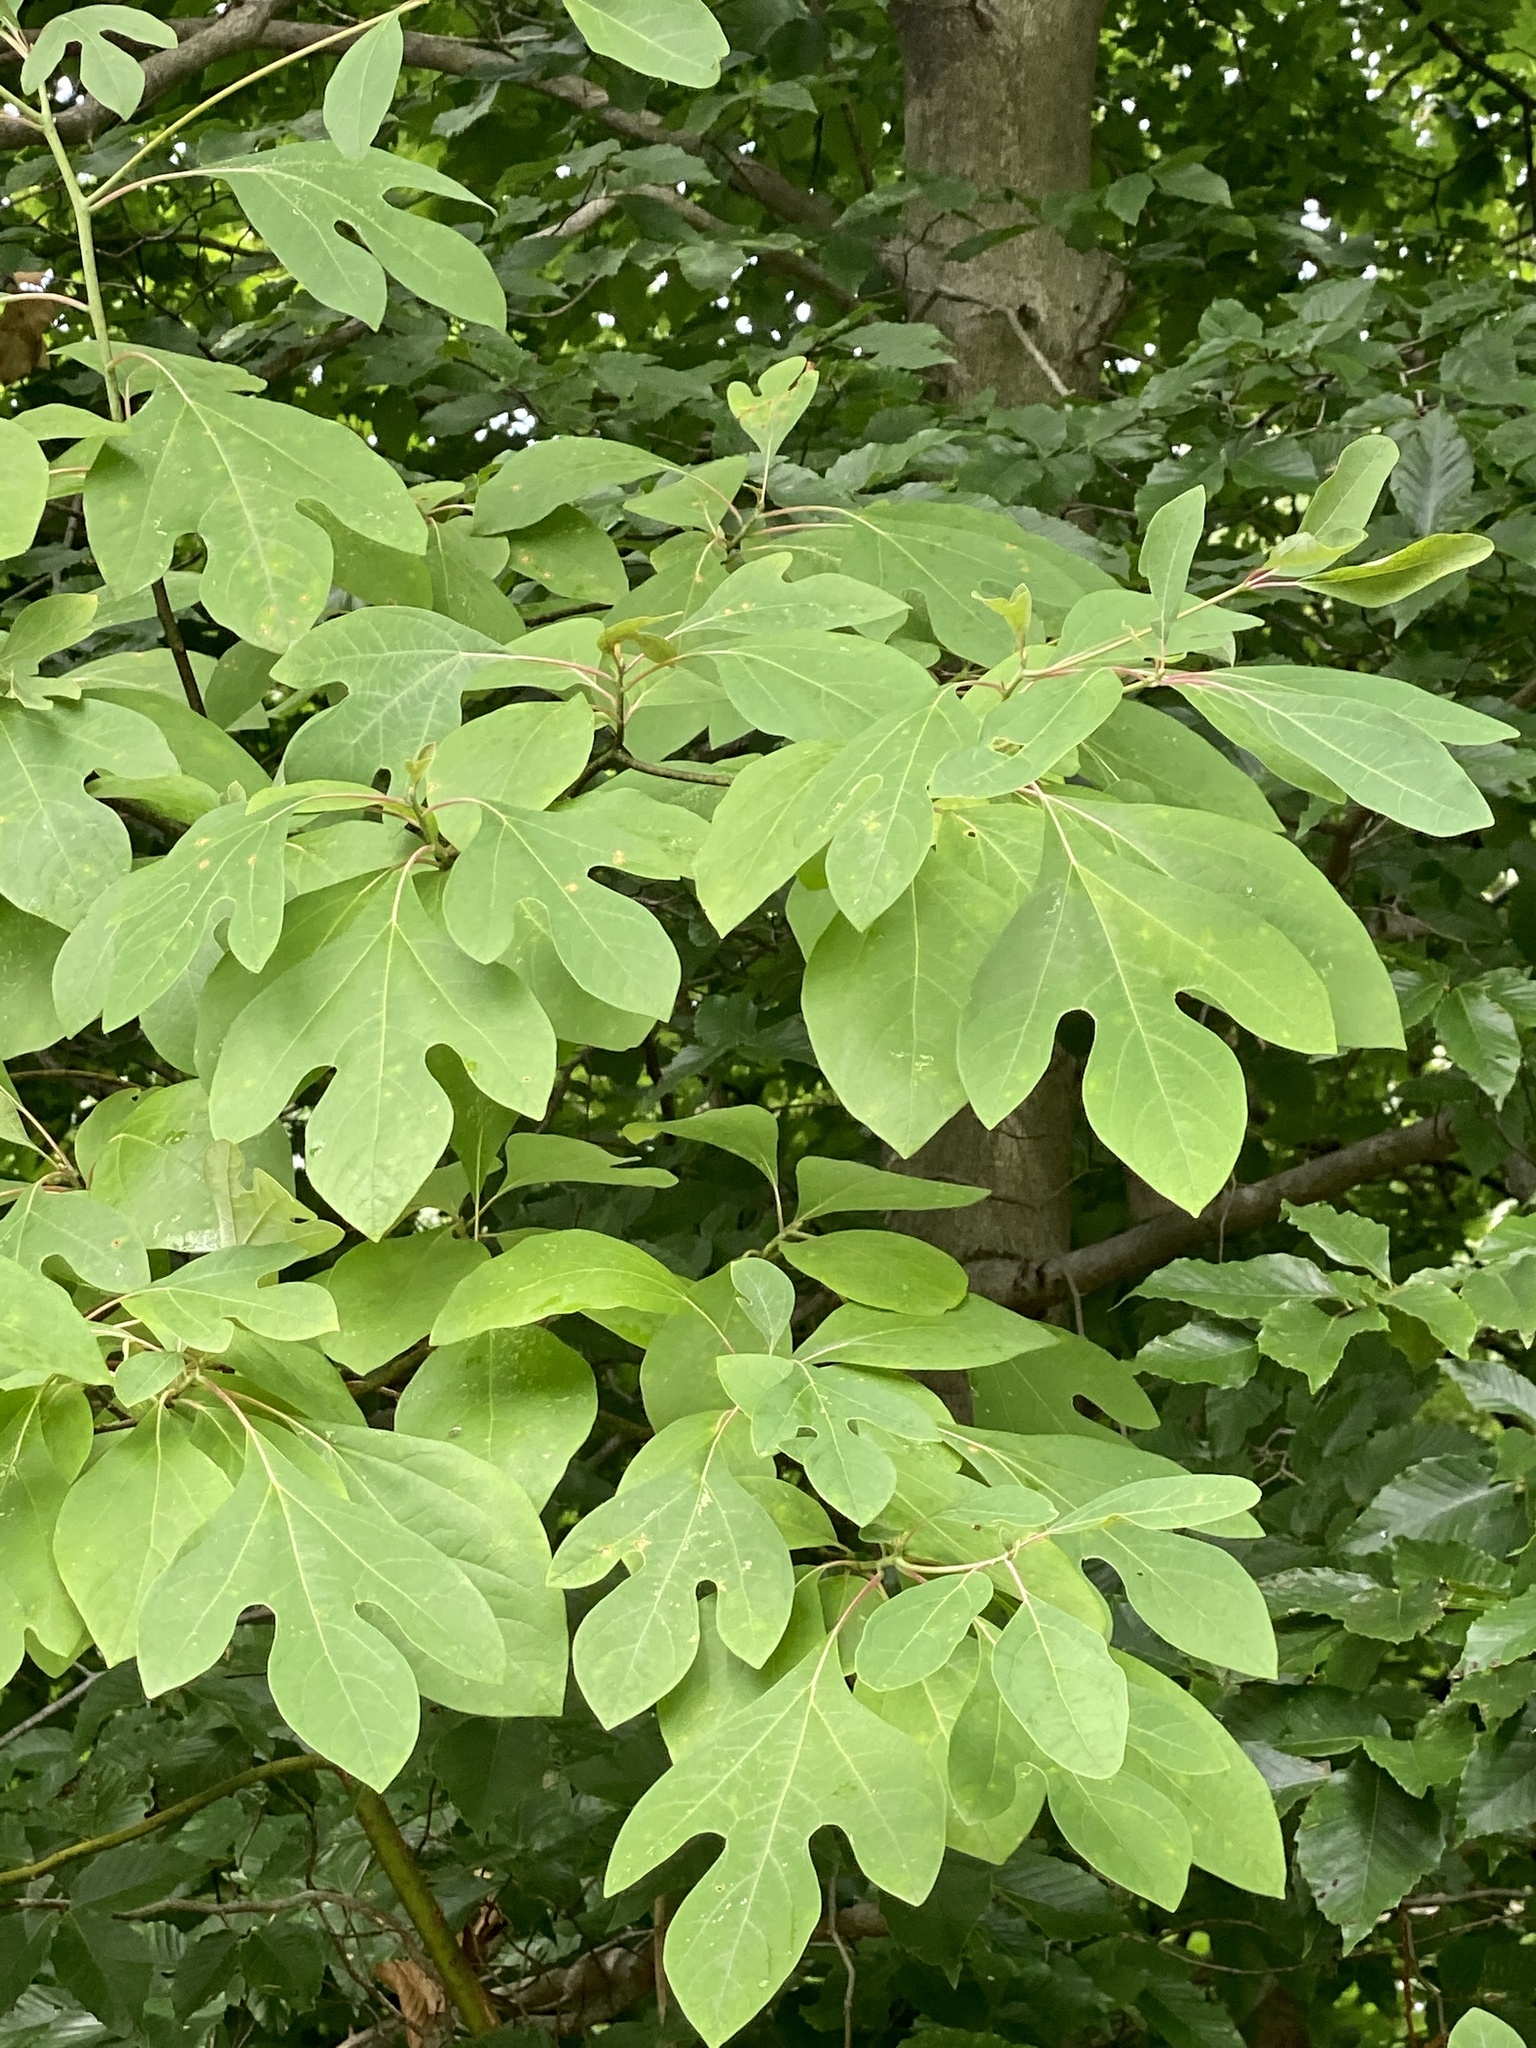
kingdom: Plantae
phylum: Tracheophyta
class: Magnoliopsida
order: Laurales
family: Lauraceae
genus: Sassafras
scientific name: Sassafras albidum
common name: Sassafras
